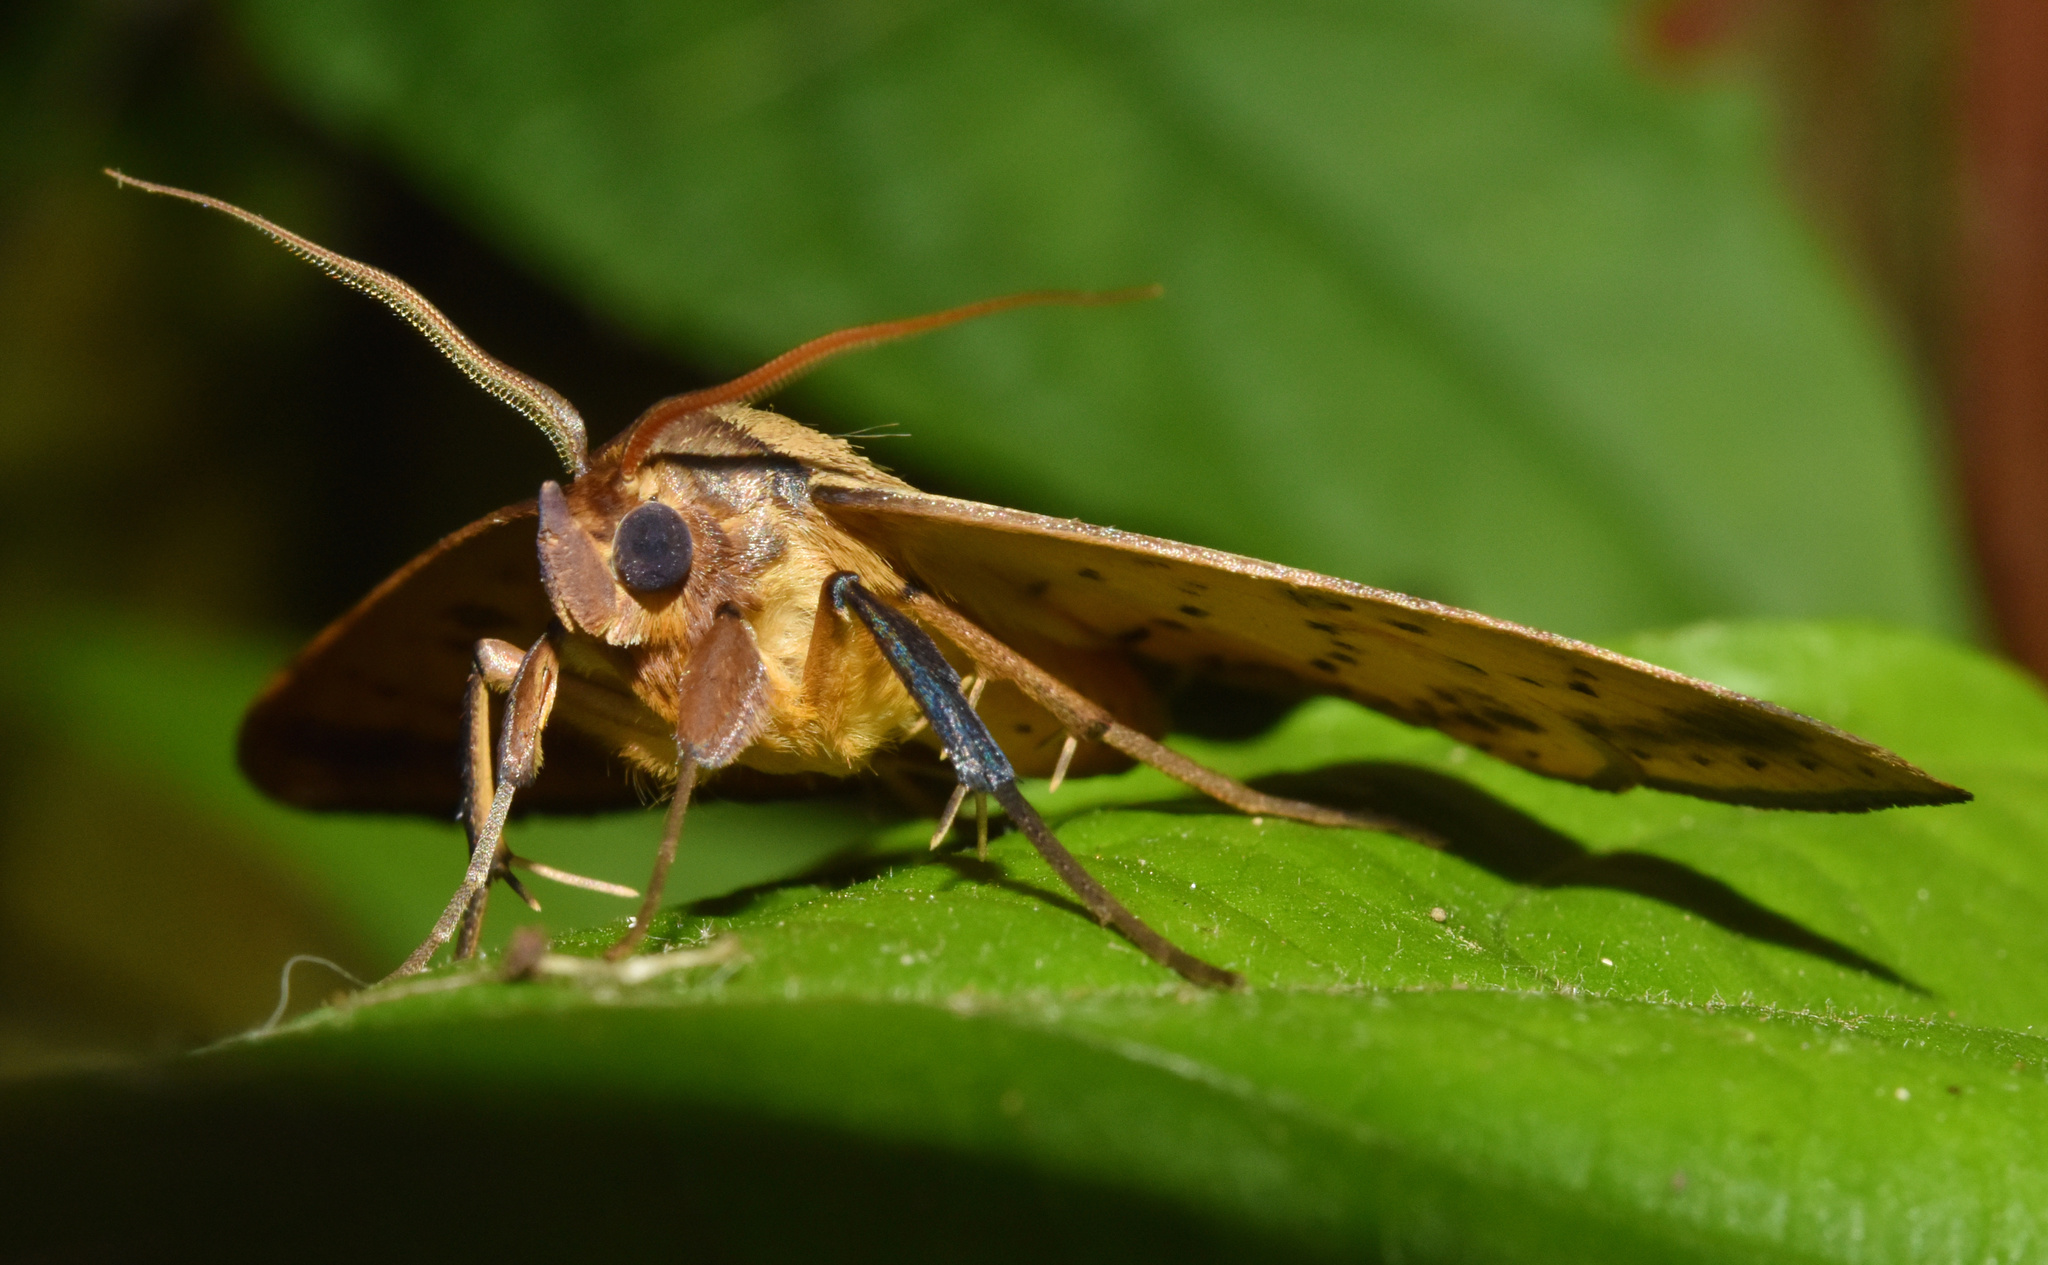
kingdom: Animalia
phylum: Arthropoda
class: Insecta
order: Lepidoptera
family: Erebidae
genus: Entomogramma
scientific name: Entomogramma pardus
